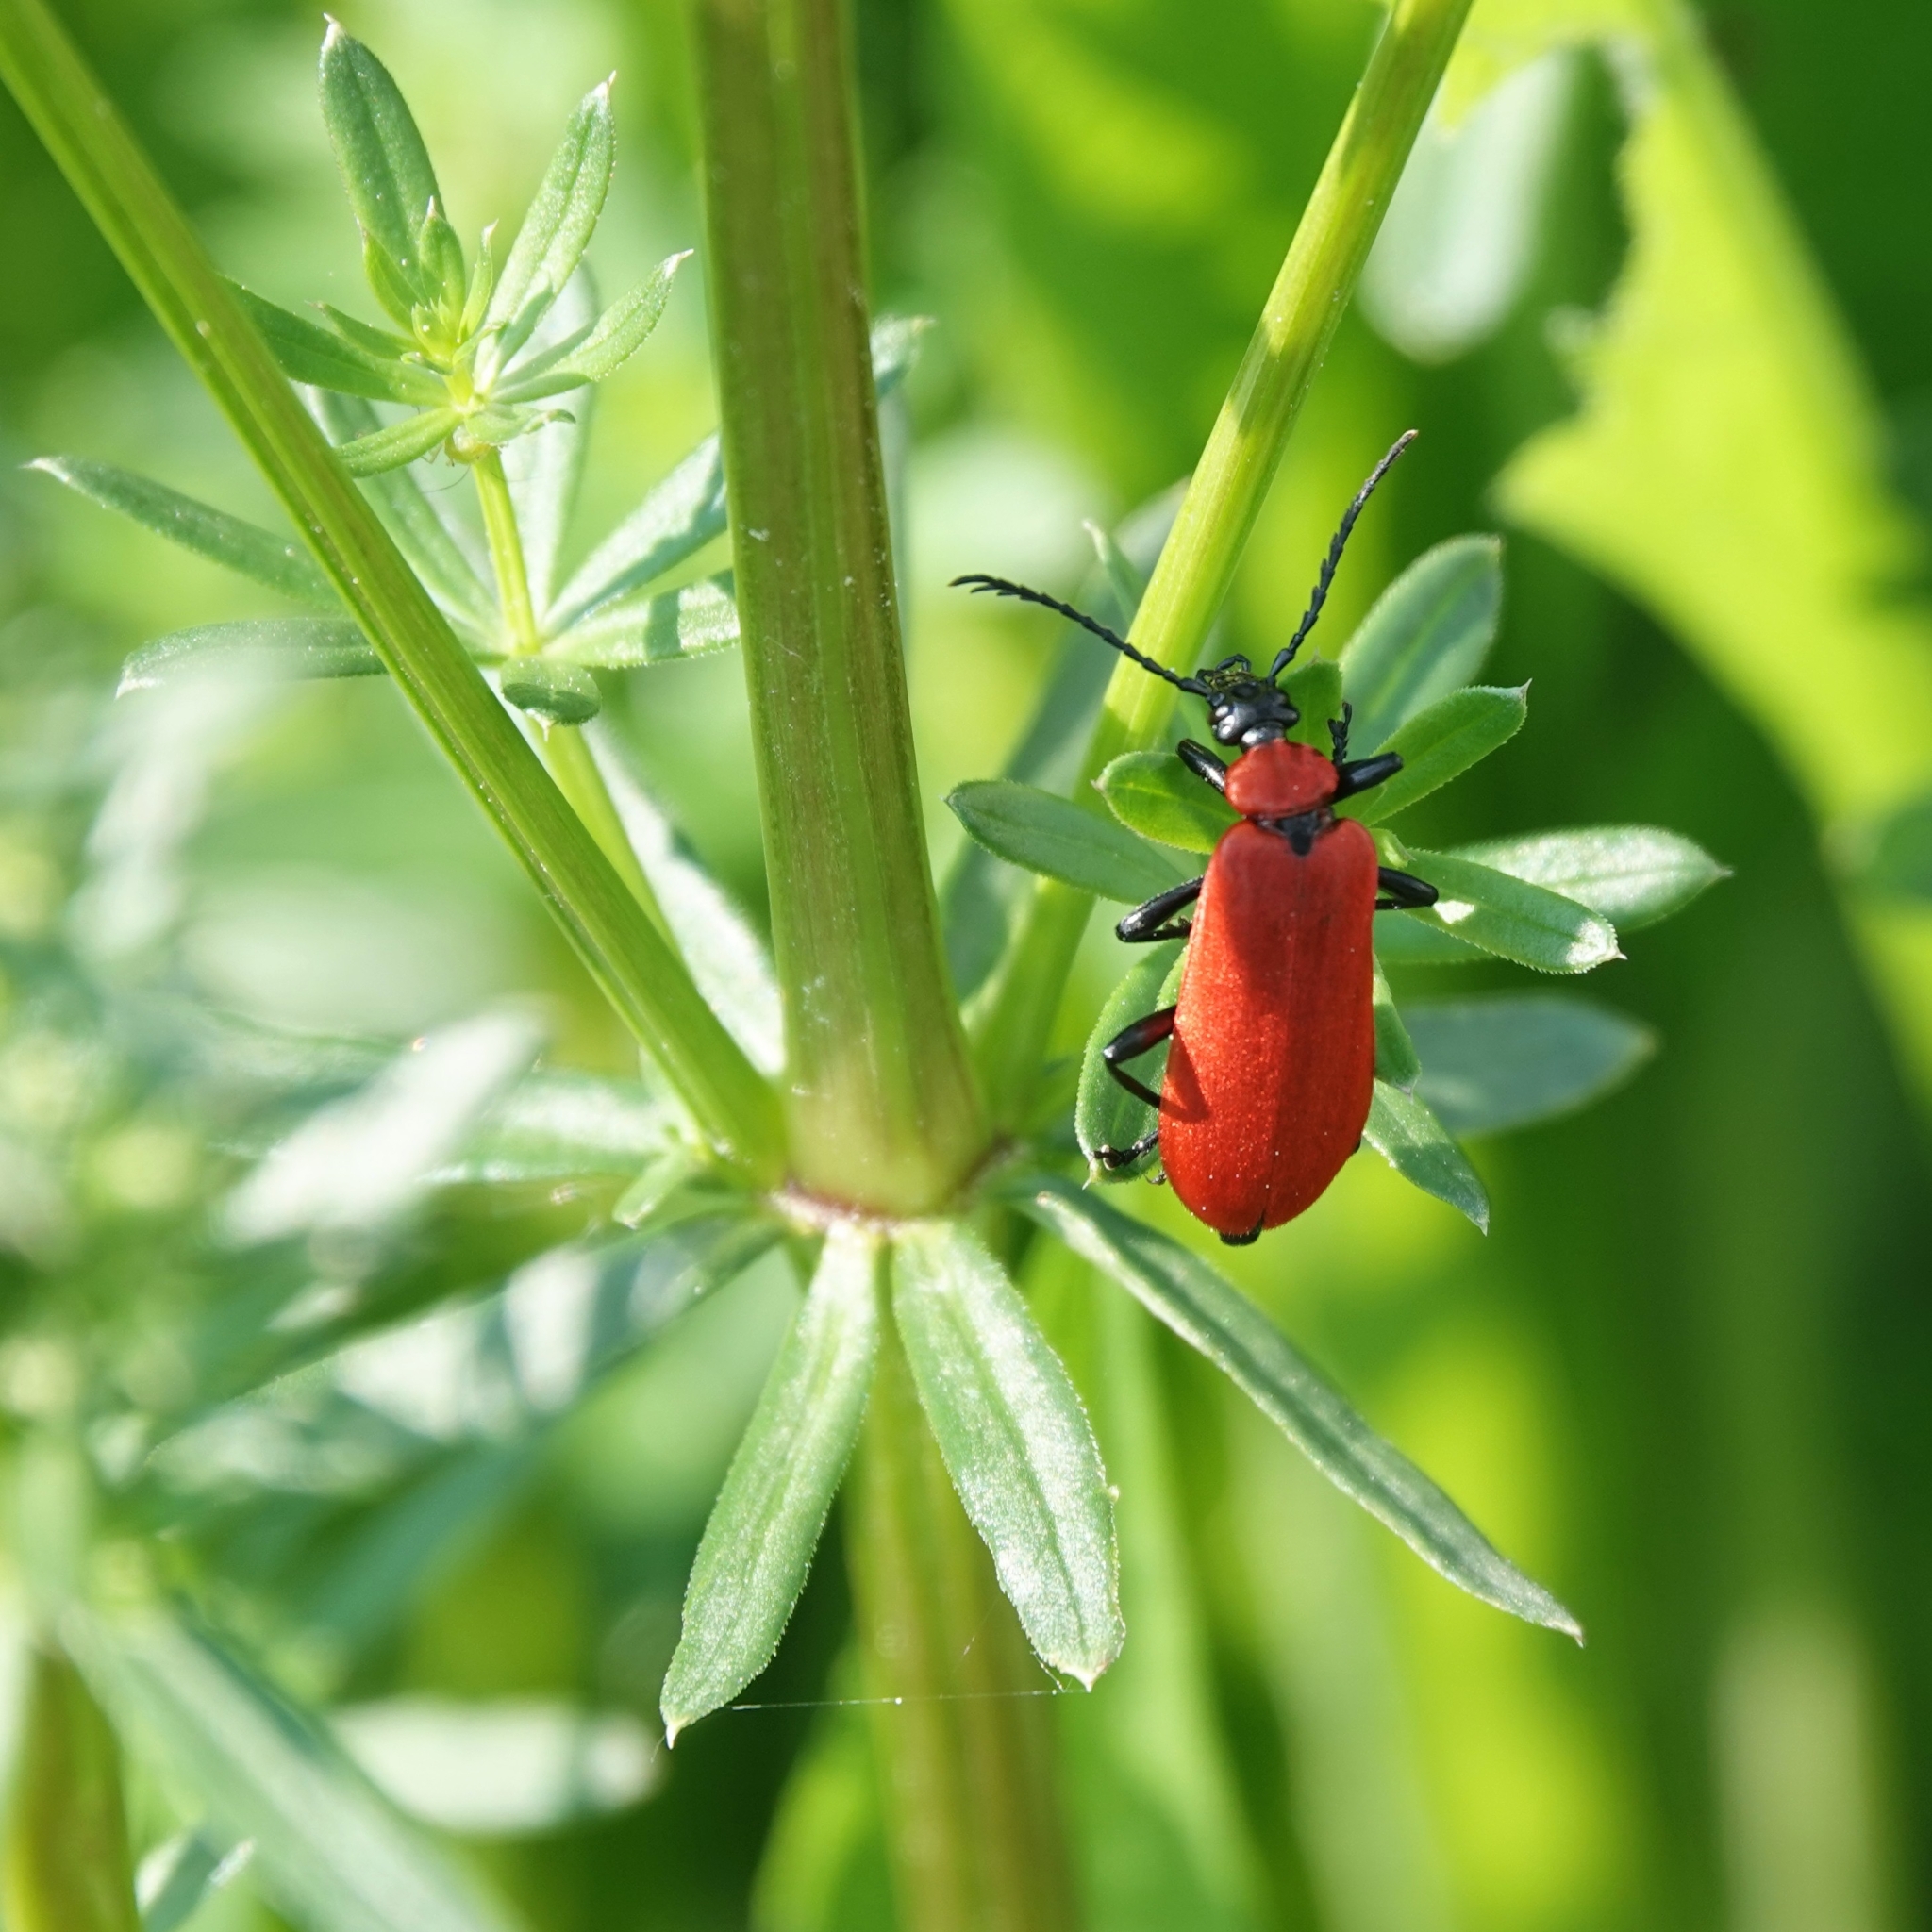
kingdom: Animalia
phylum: Arthropoda
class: Insecta
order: Coleoptera
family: Pyrochroidae
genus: Pyrochroa
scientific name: Pyrochroa coccinea
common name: Black-headed cardinal beetle
